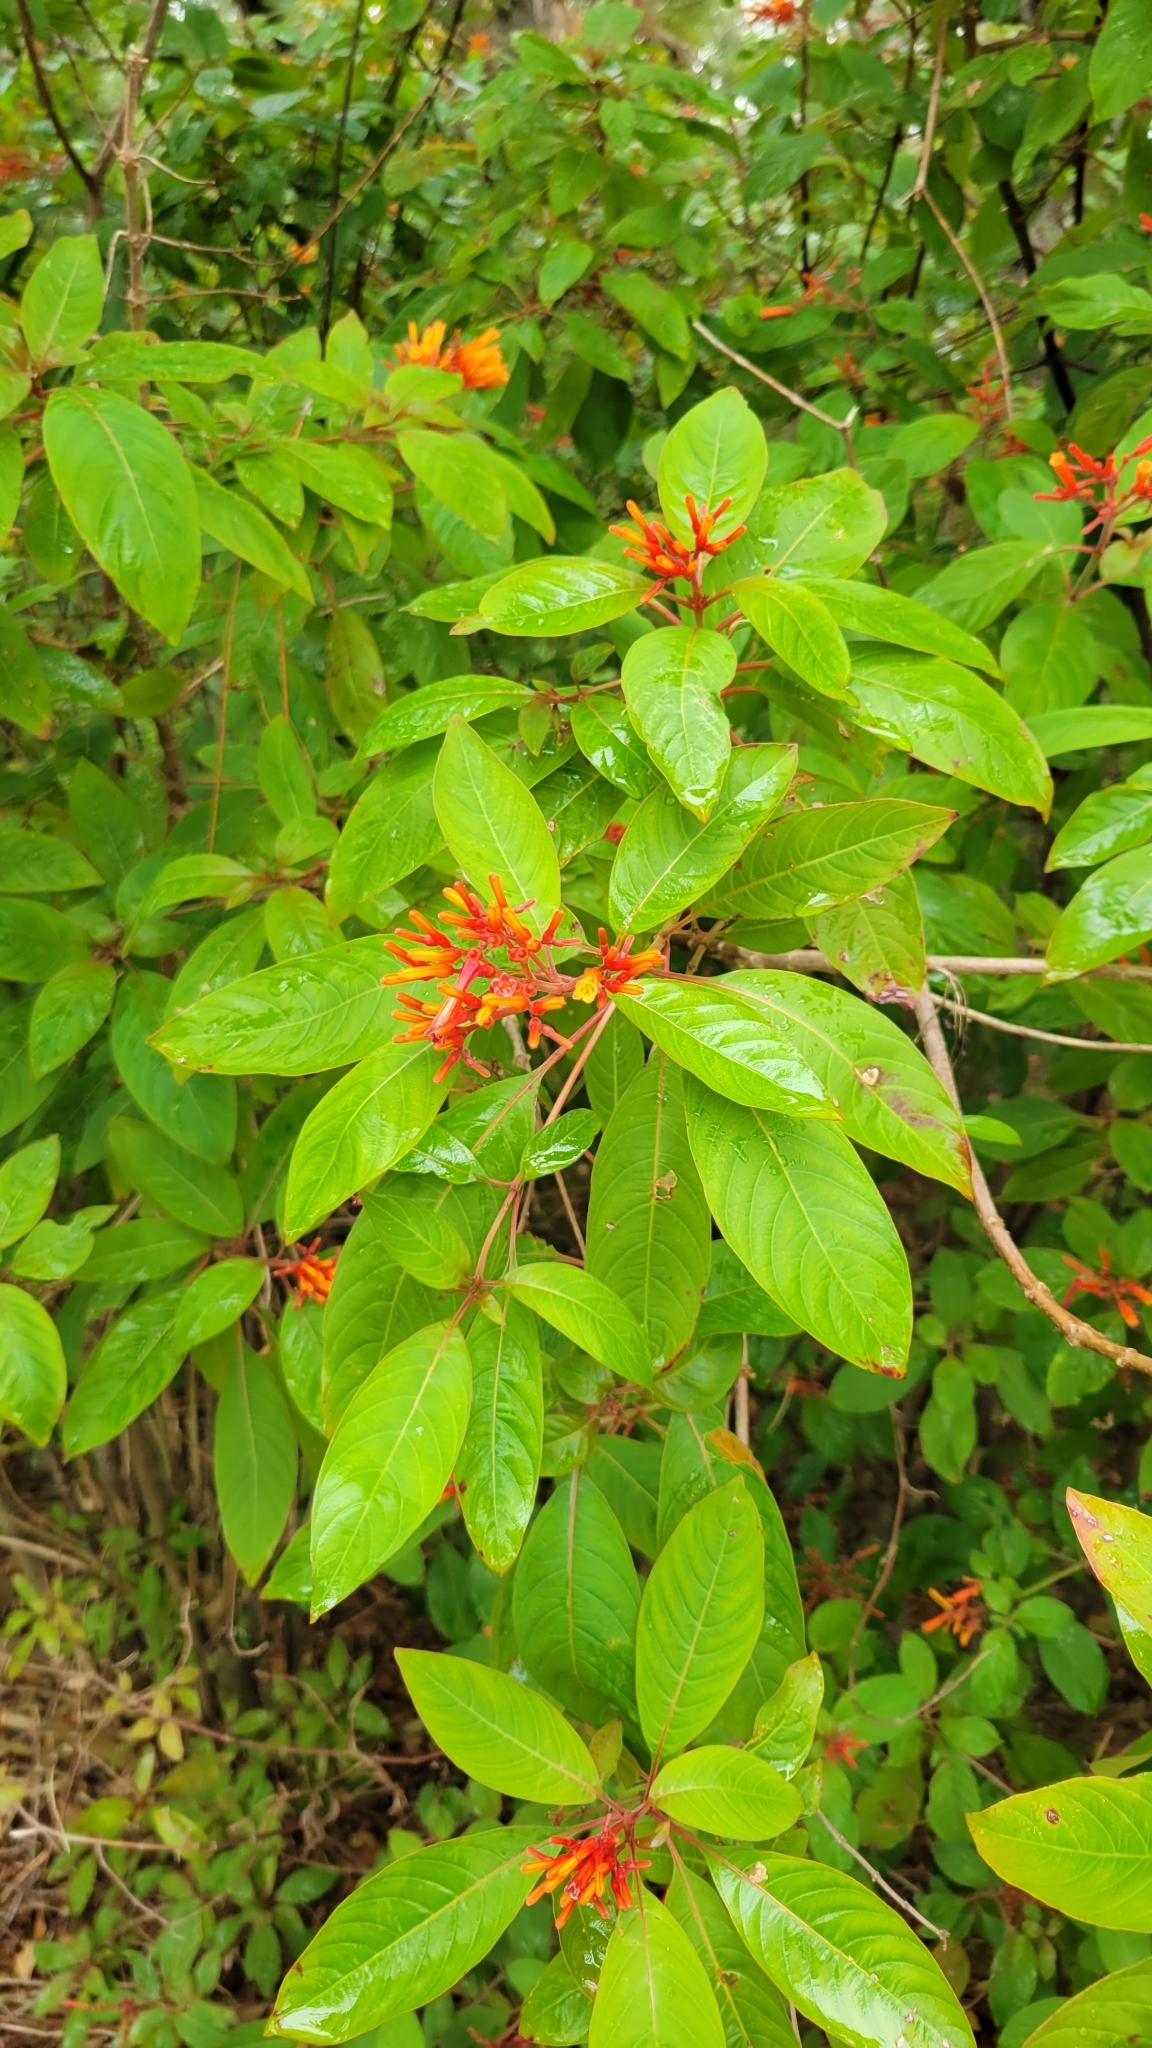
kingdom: Plantae
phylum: Tracheophyta
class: Magnoliopsida
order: Gentianales
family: Rubiaceae
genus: Hamelia
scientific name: Hamelia patens
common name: Redhead
